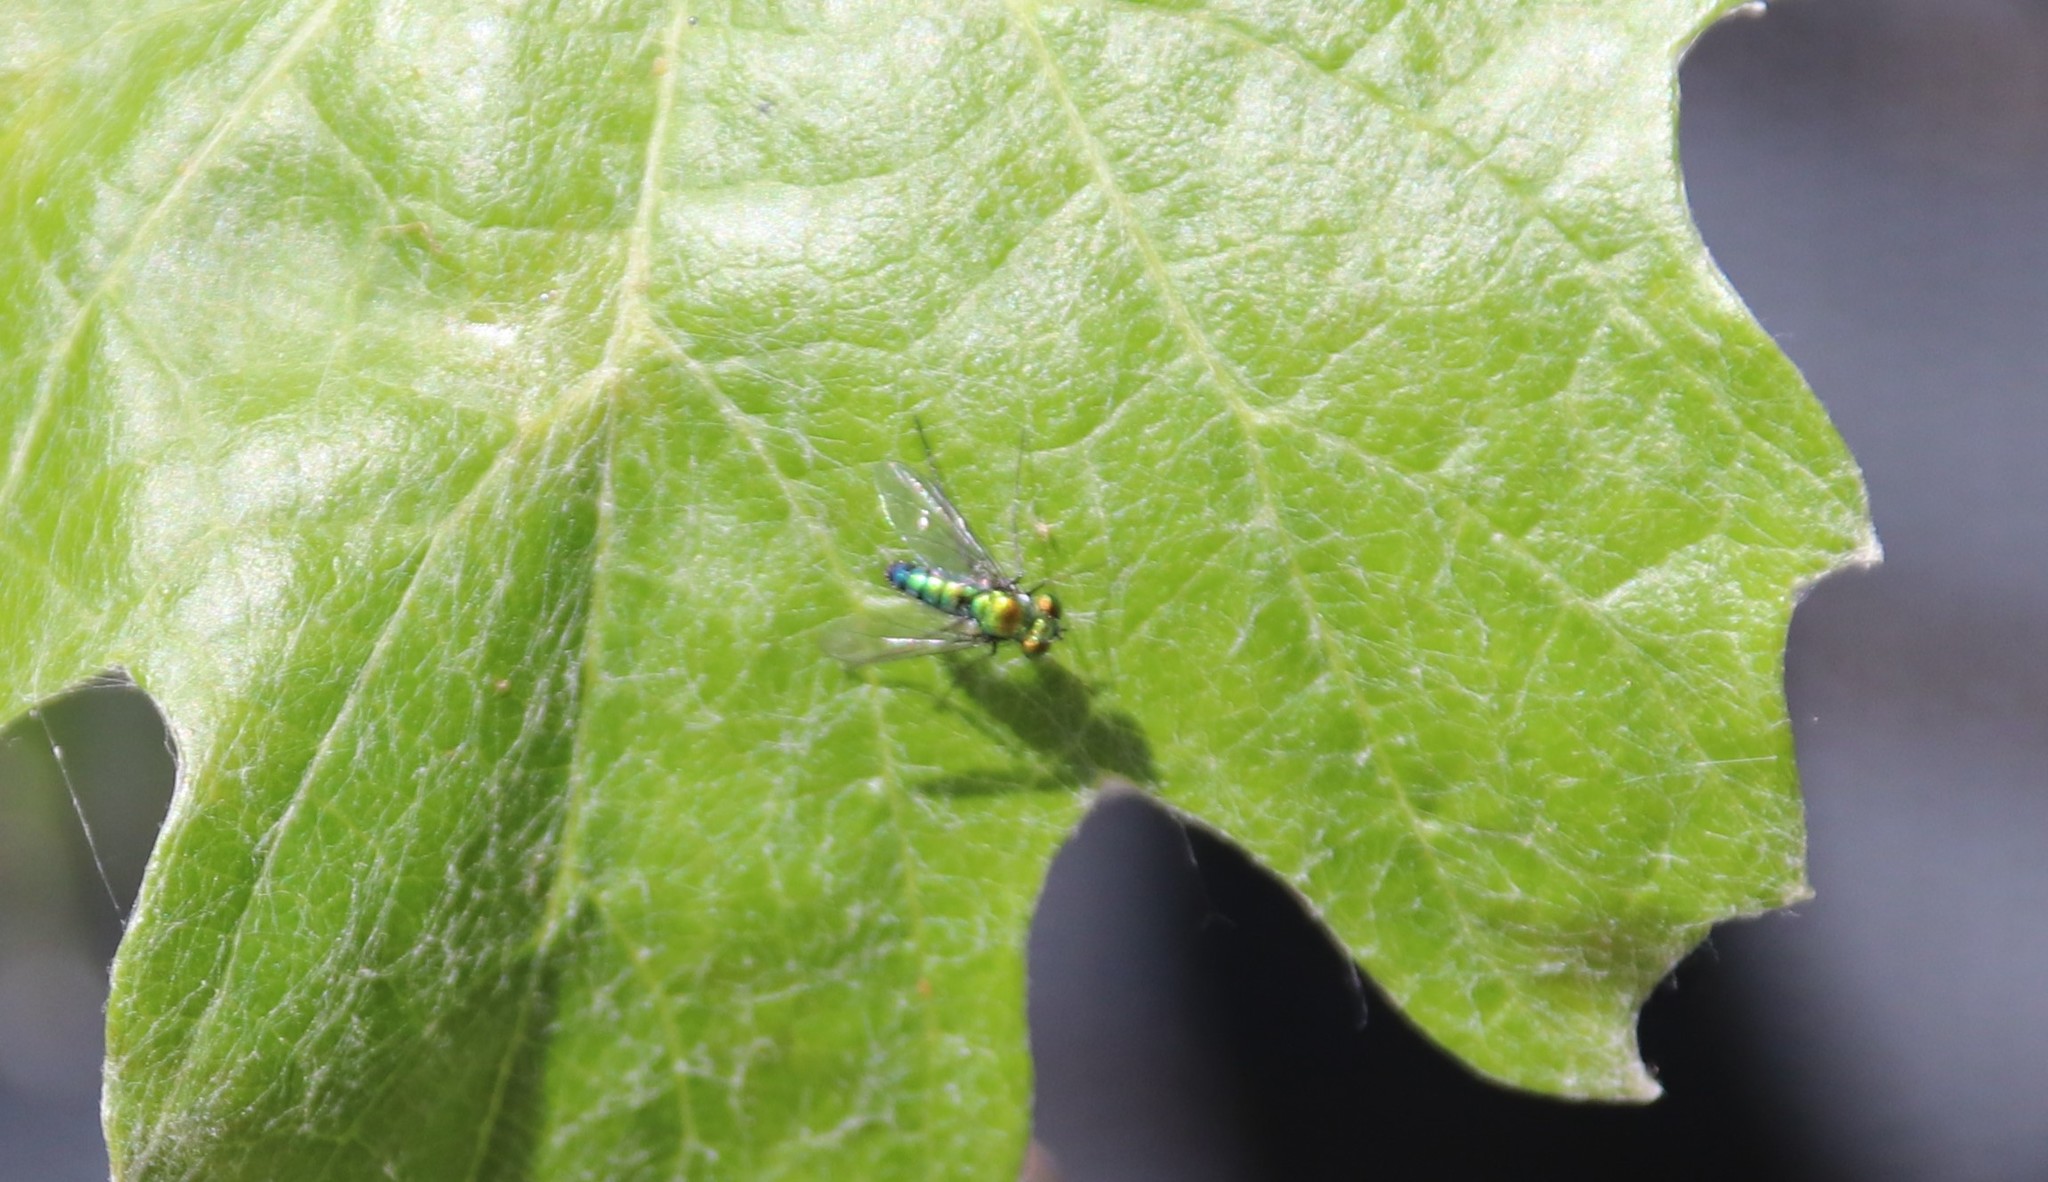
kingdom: Animalia
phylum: Arthropoda
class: Insecta
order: Diptera
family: Dolichopodidae
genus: Condylostylus
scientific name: Condylostylus longicornis
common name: Long-legged fly
